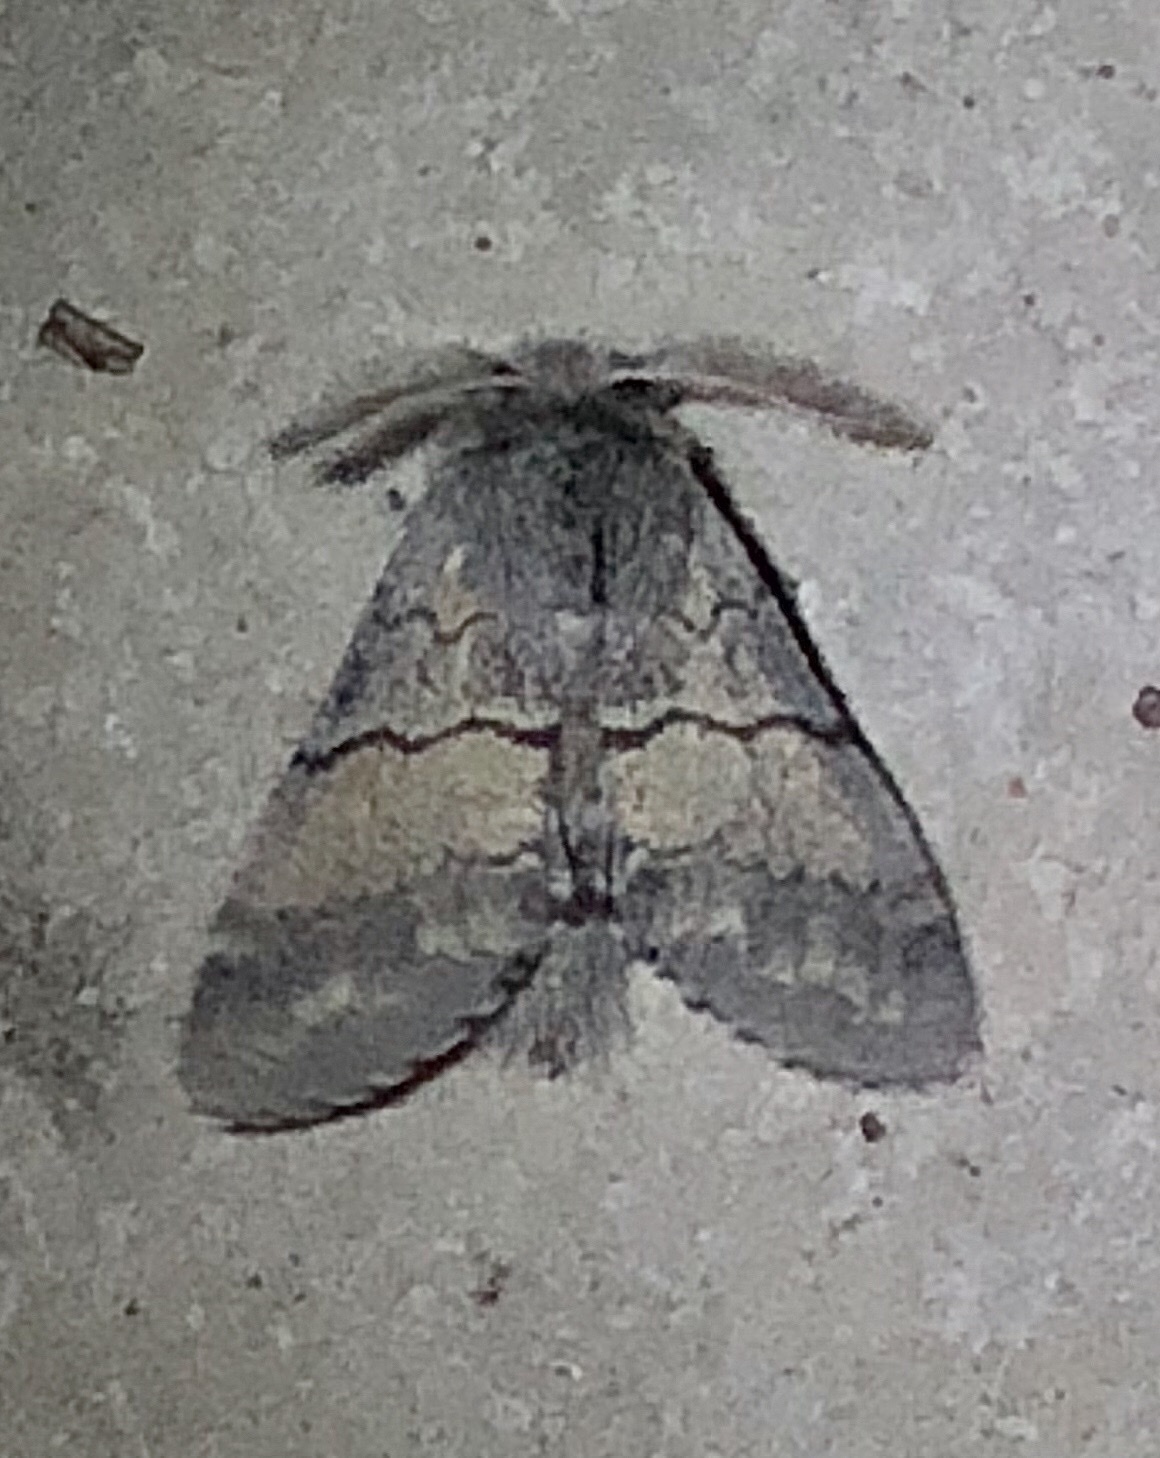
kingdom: Animalia
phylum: Arthropoda
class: Insecta
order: Lepidoptera
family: Notodontidae
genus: Gluphisia
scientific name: Gluphisia lintneri
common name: Lintner's gluphisia moth
